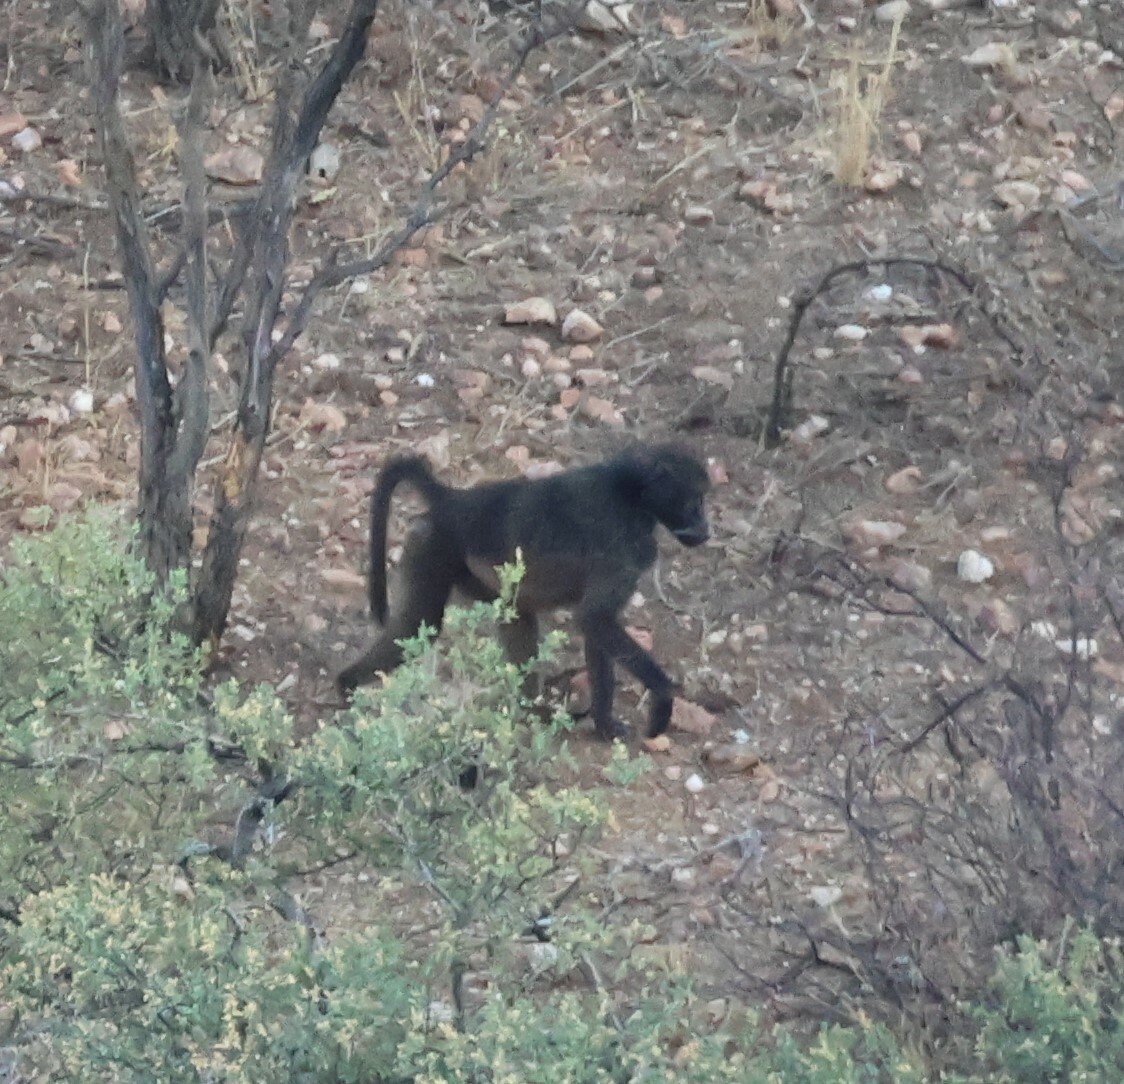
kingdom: Animalia
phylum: Chordata
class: Mammalia
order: Primates
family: Cercopithecidae
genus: Papio
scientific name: Papio ursinus
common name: Chacma baboon
